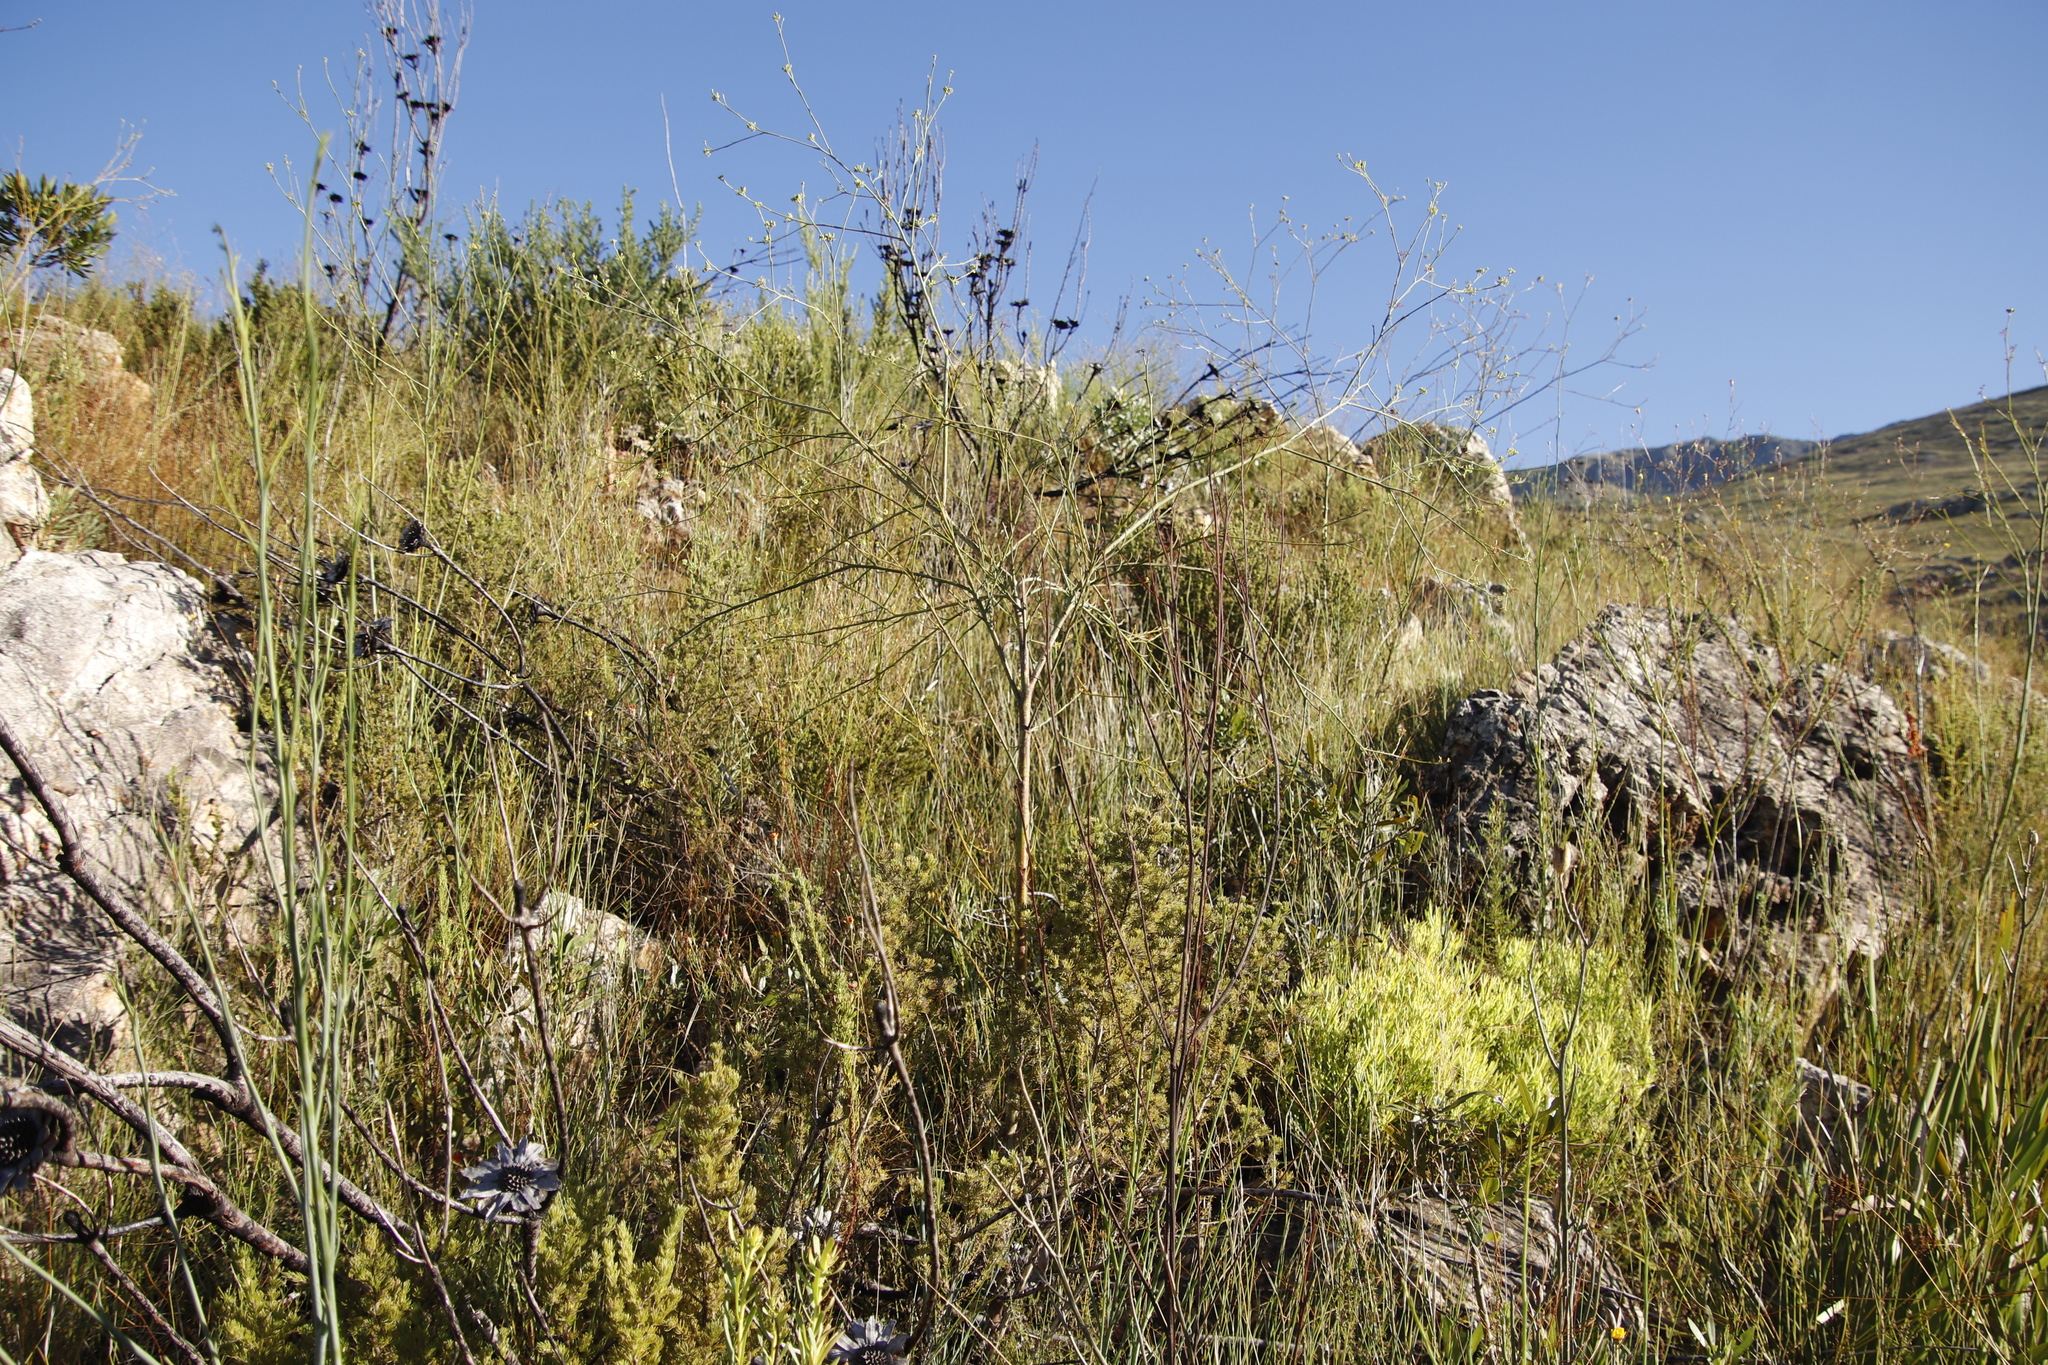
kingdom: Plantae
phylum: Tracheophyta
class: Magnoliopsida
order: Santalales
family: Thesiaceae
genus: Thesium
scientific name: Thesium strictum
